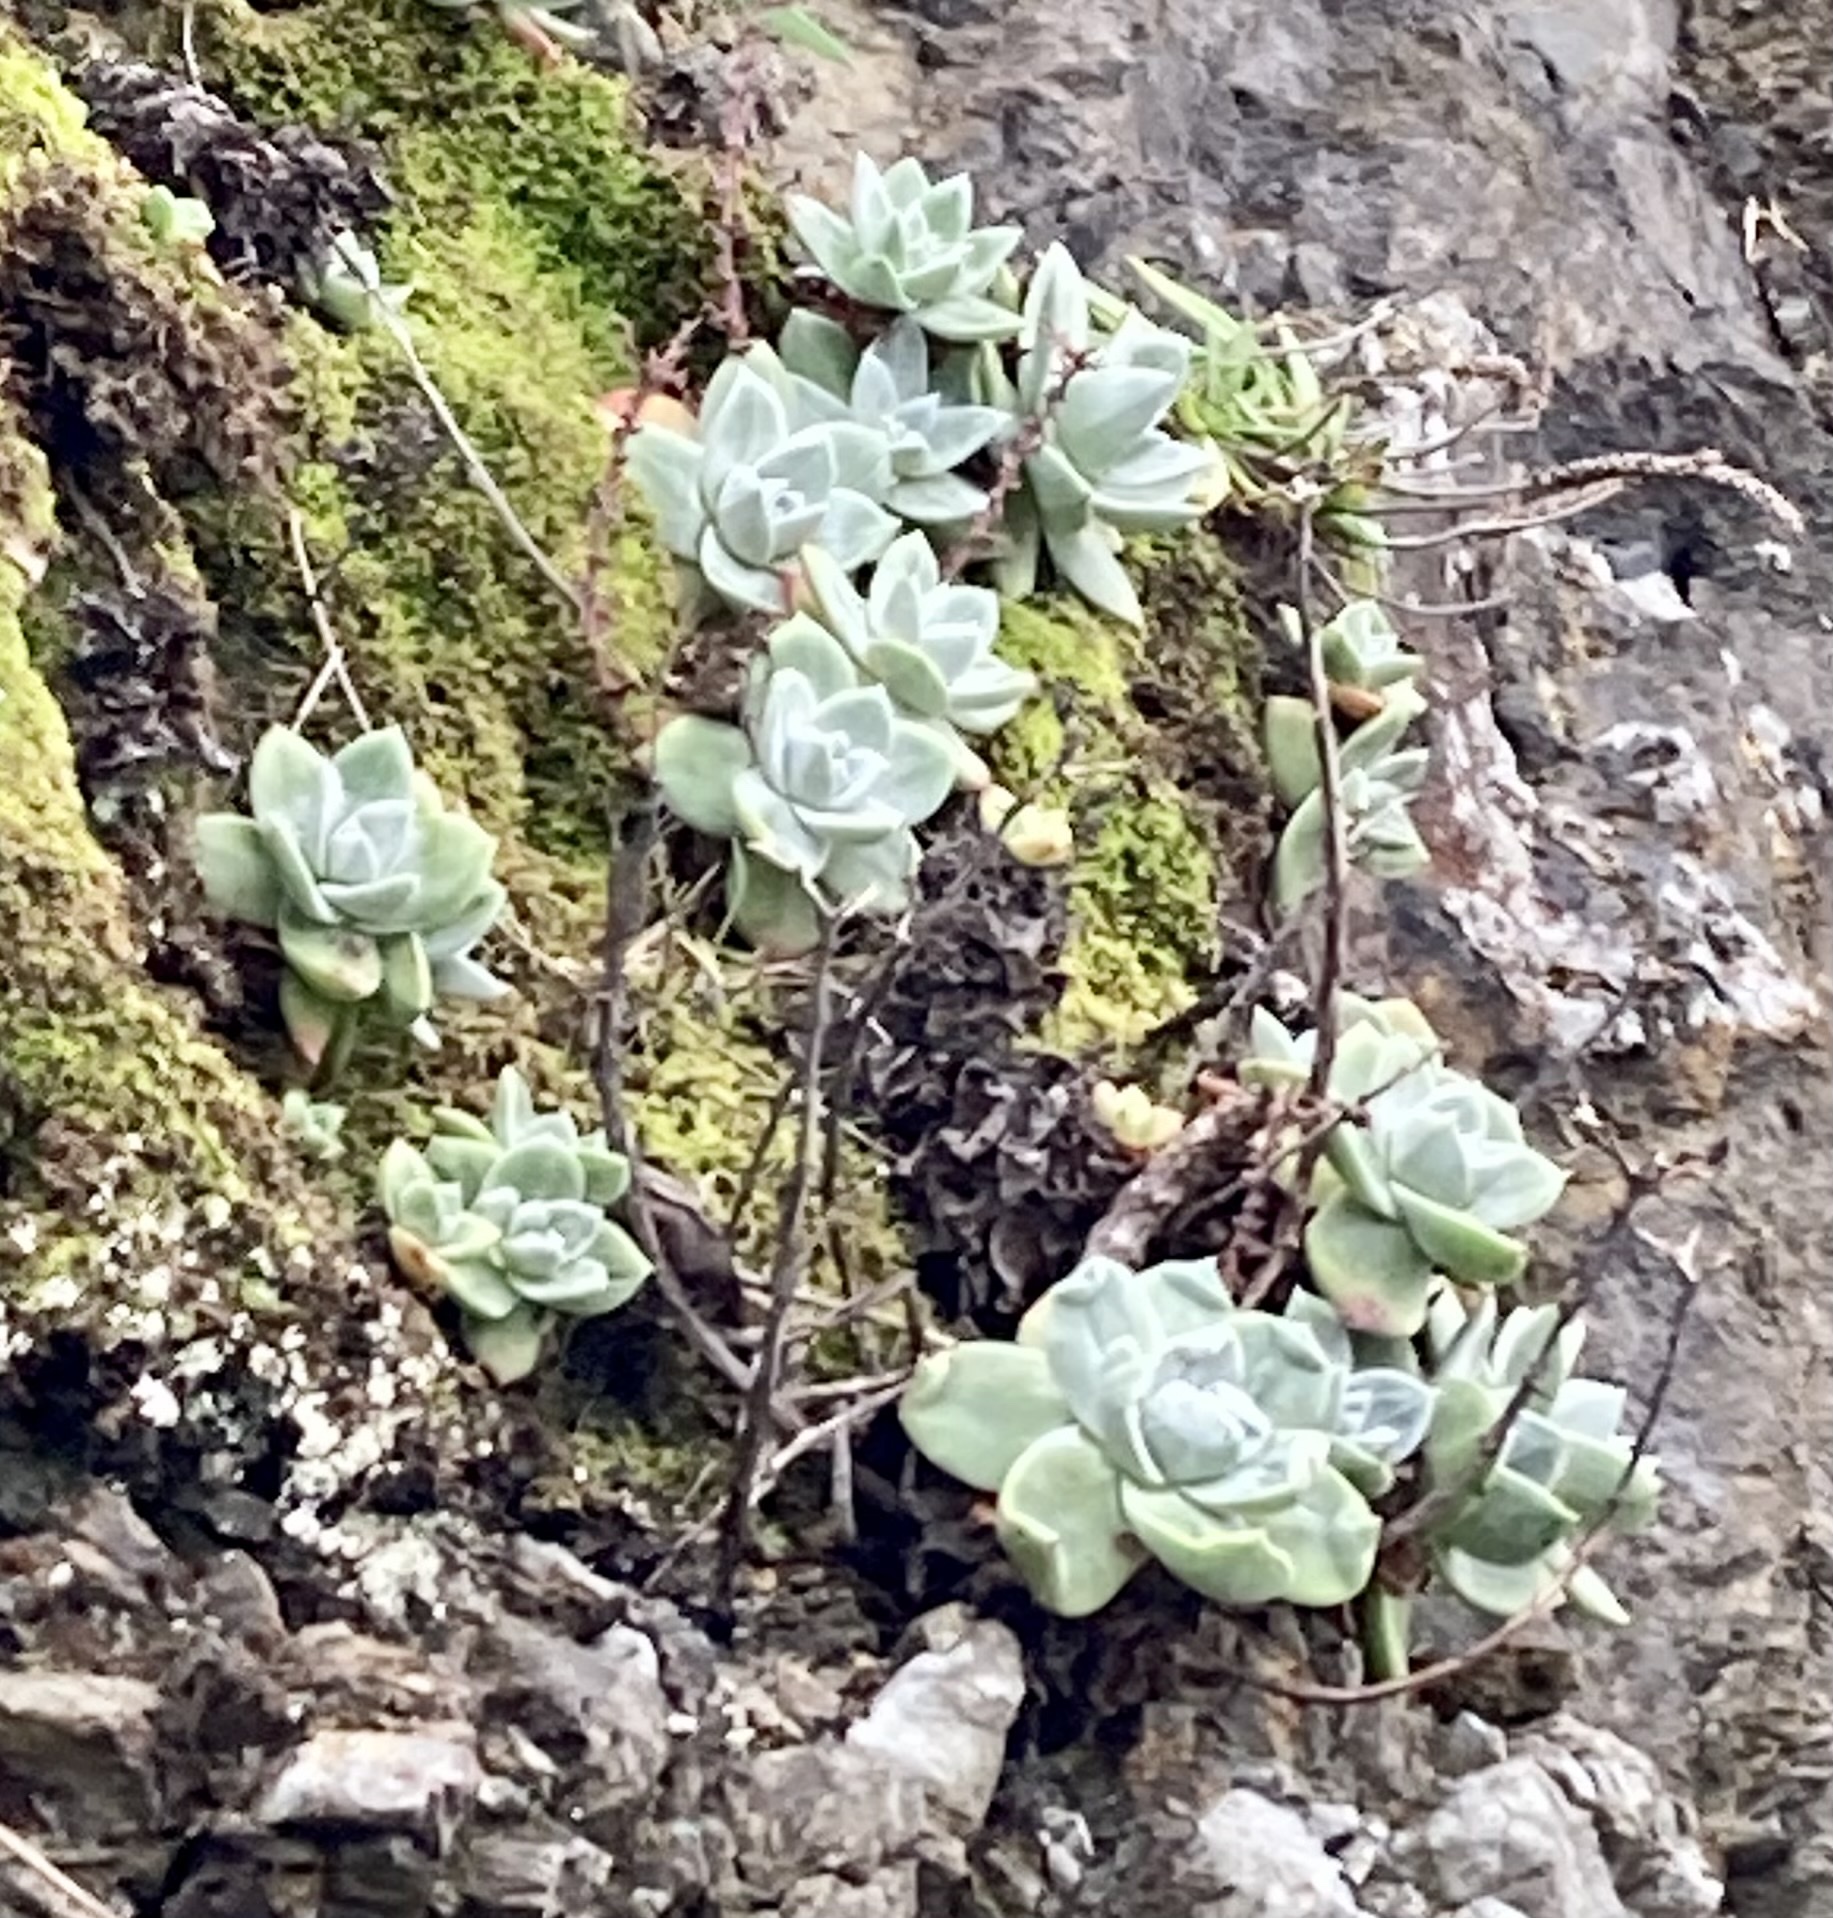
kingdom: Plantae
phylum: Tracheophyta
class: Magnoliopsida
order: Saxifragales
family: Crassulaceae
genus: Sedum
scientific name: Sedum spathulifolium
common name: Colorado stonecrop
